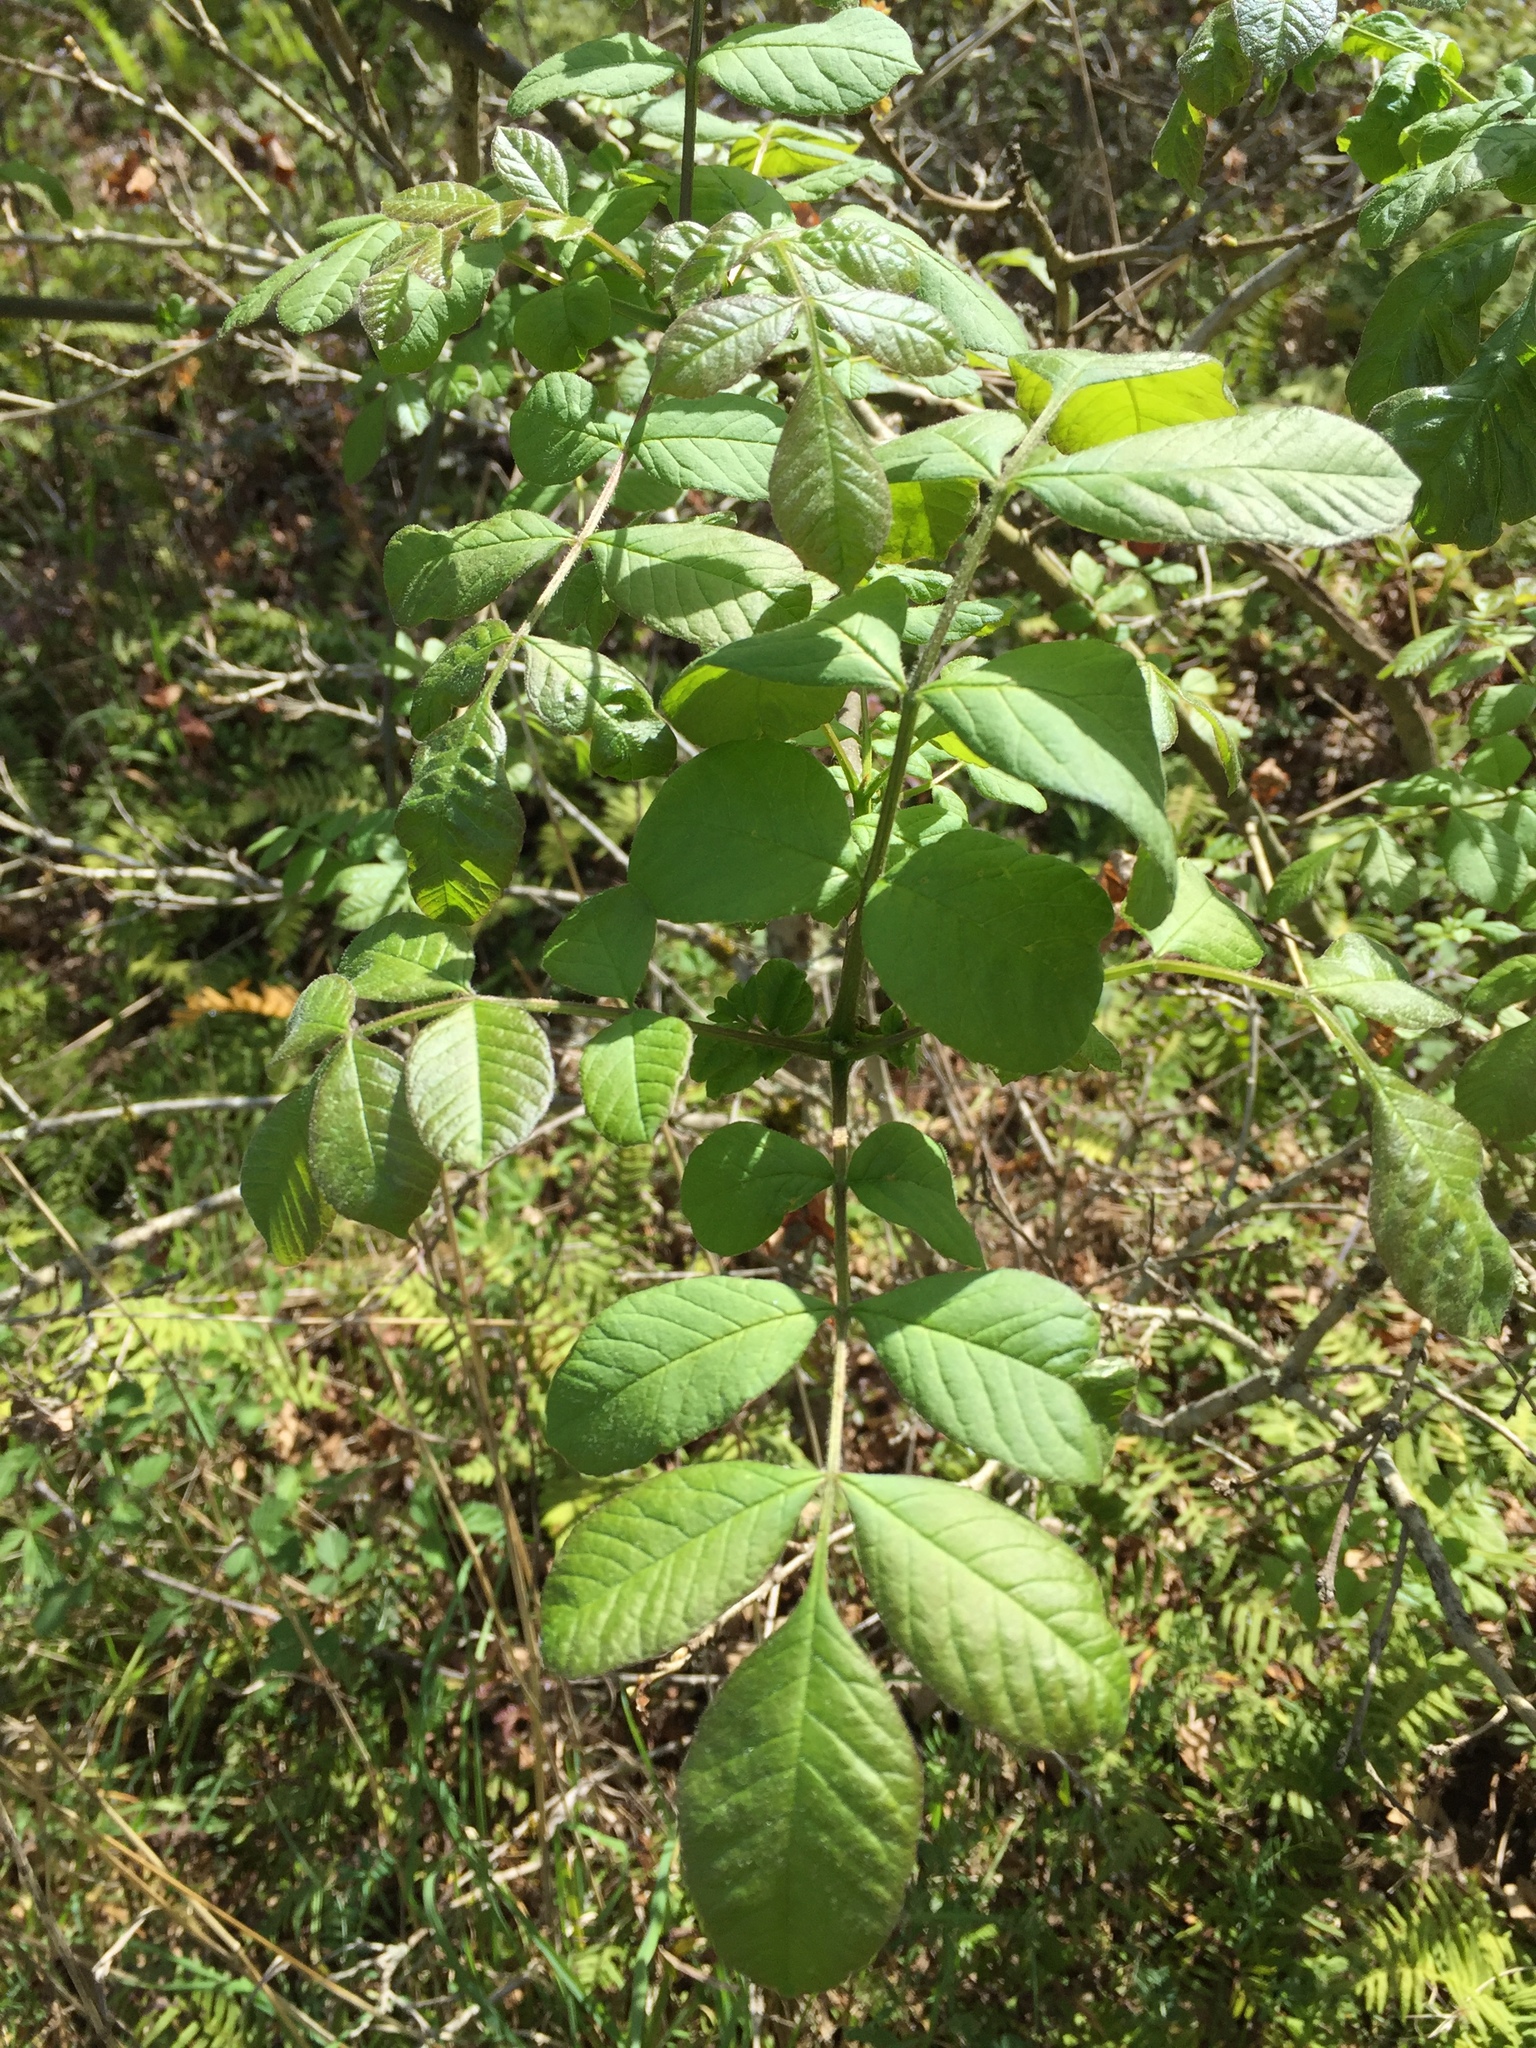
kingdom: Plantae
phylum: Tracheophyta
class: Magnoliopsida
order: Lamiales
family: Oleaceae
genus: Fraxinus
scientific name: Fraxinus latifolia
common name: Oregon ash
